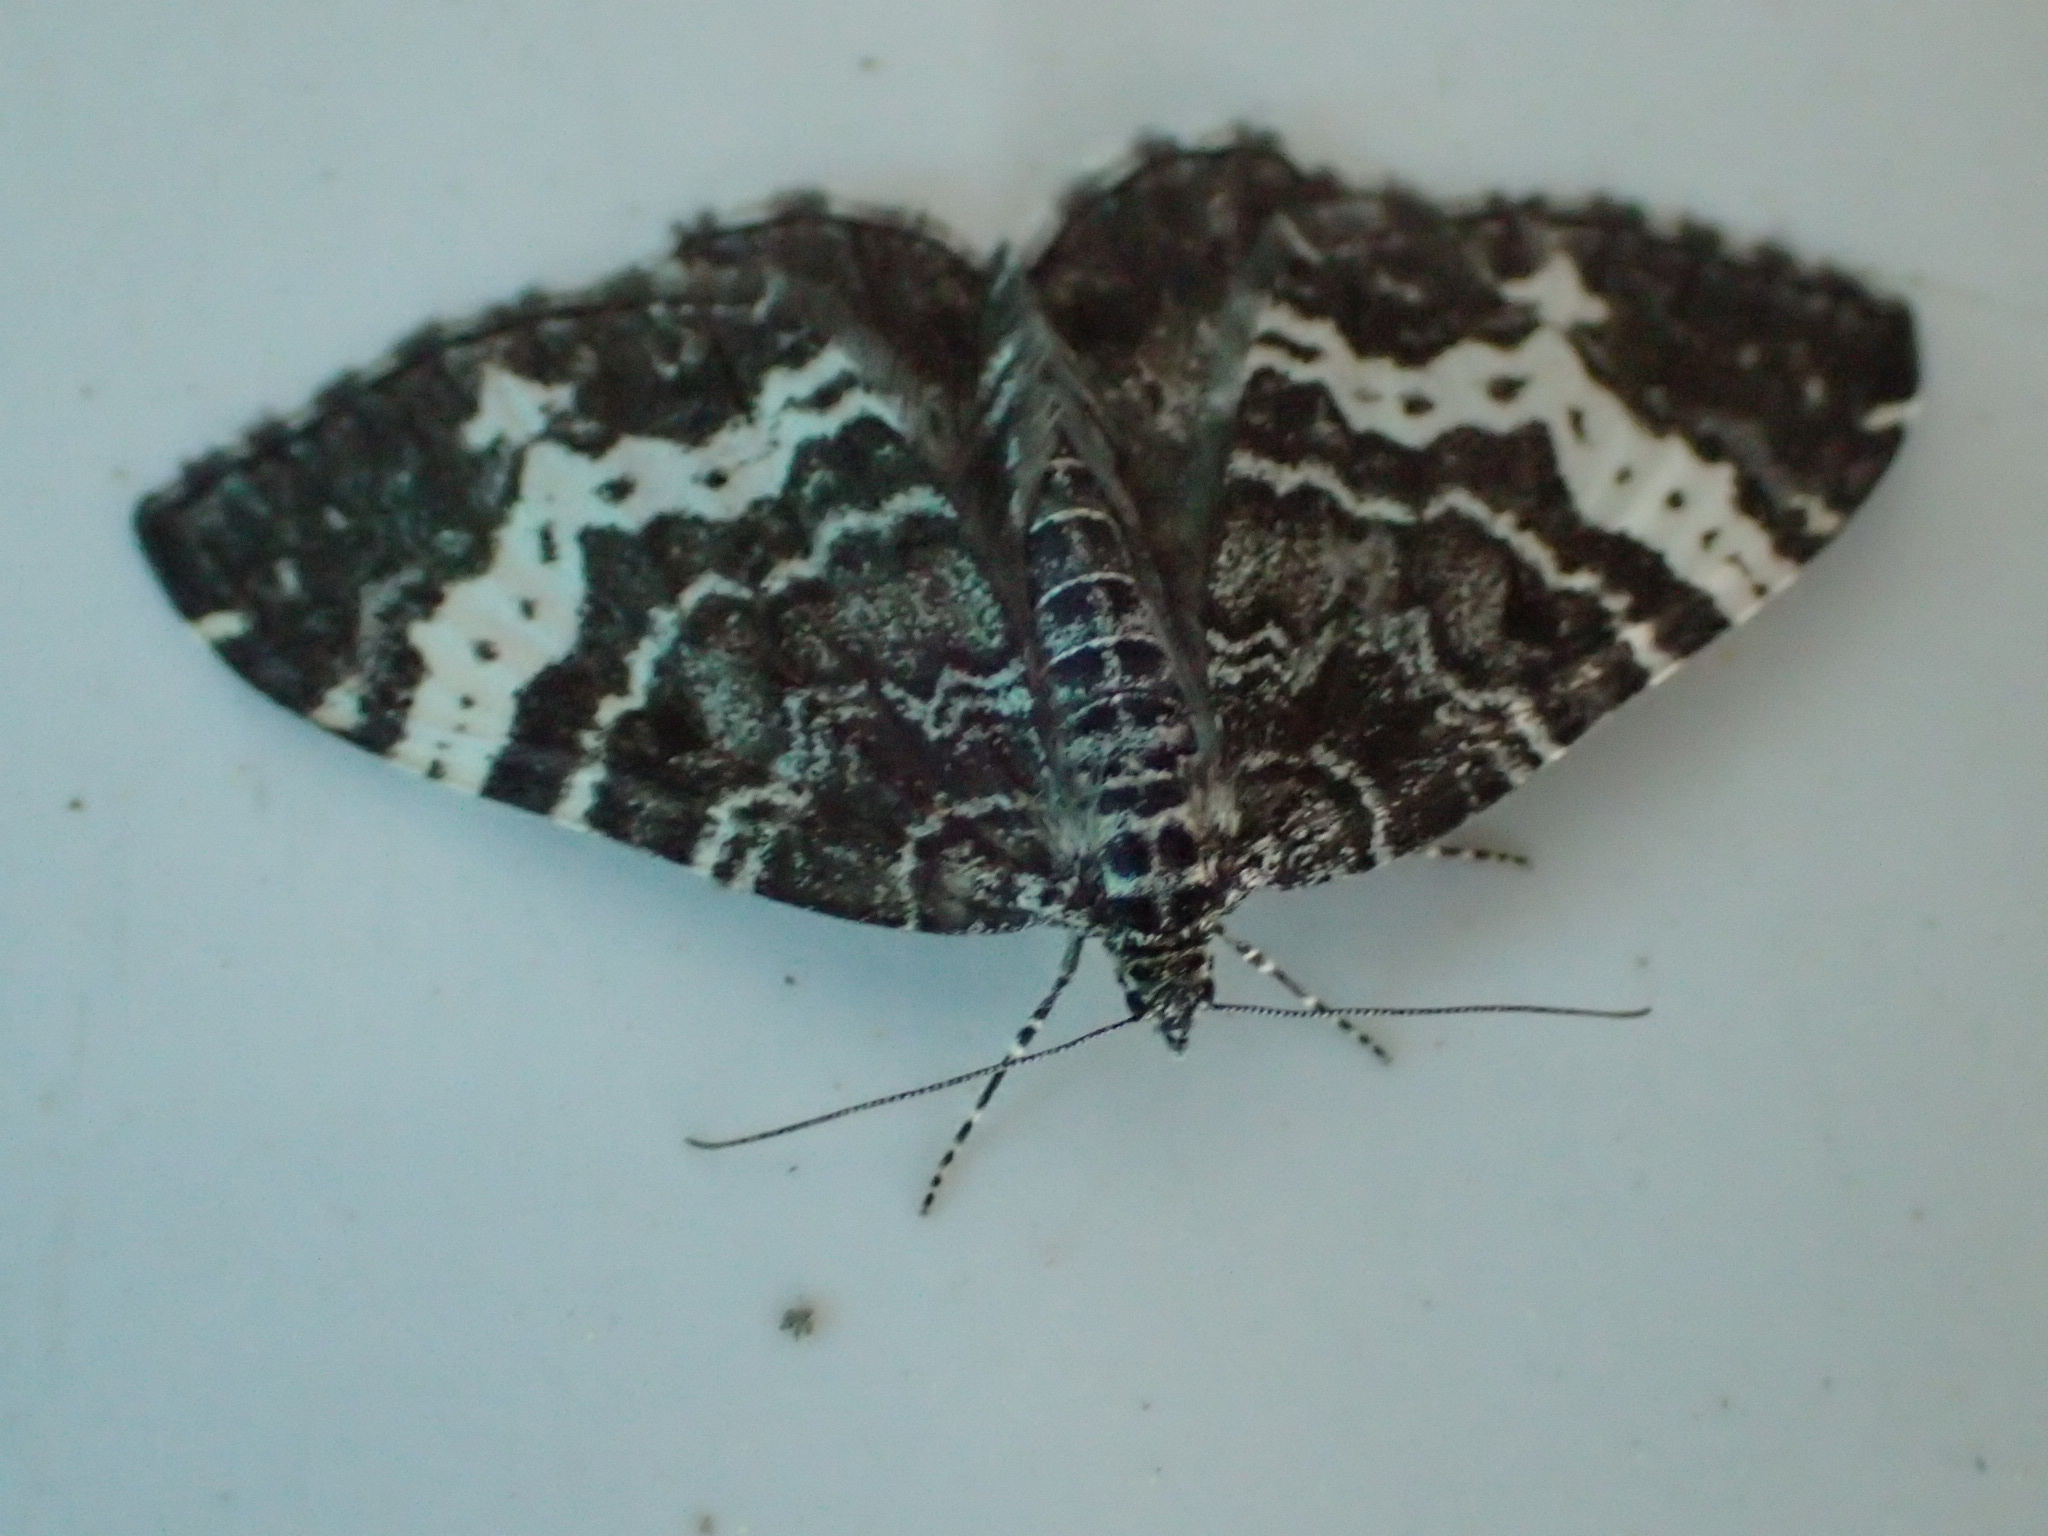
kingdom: Animalia
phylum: Arthropoda
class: Insecta
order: Lepidoptera
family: Geometridae
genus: Rheumaptera
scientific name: Rheumaptera
